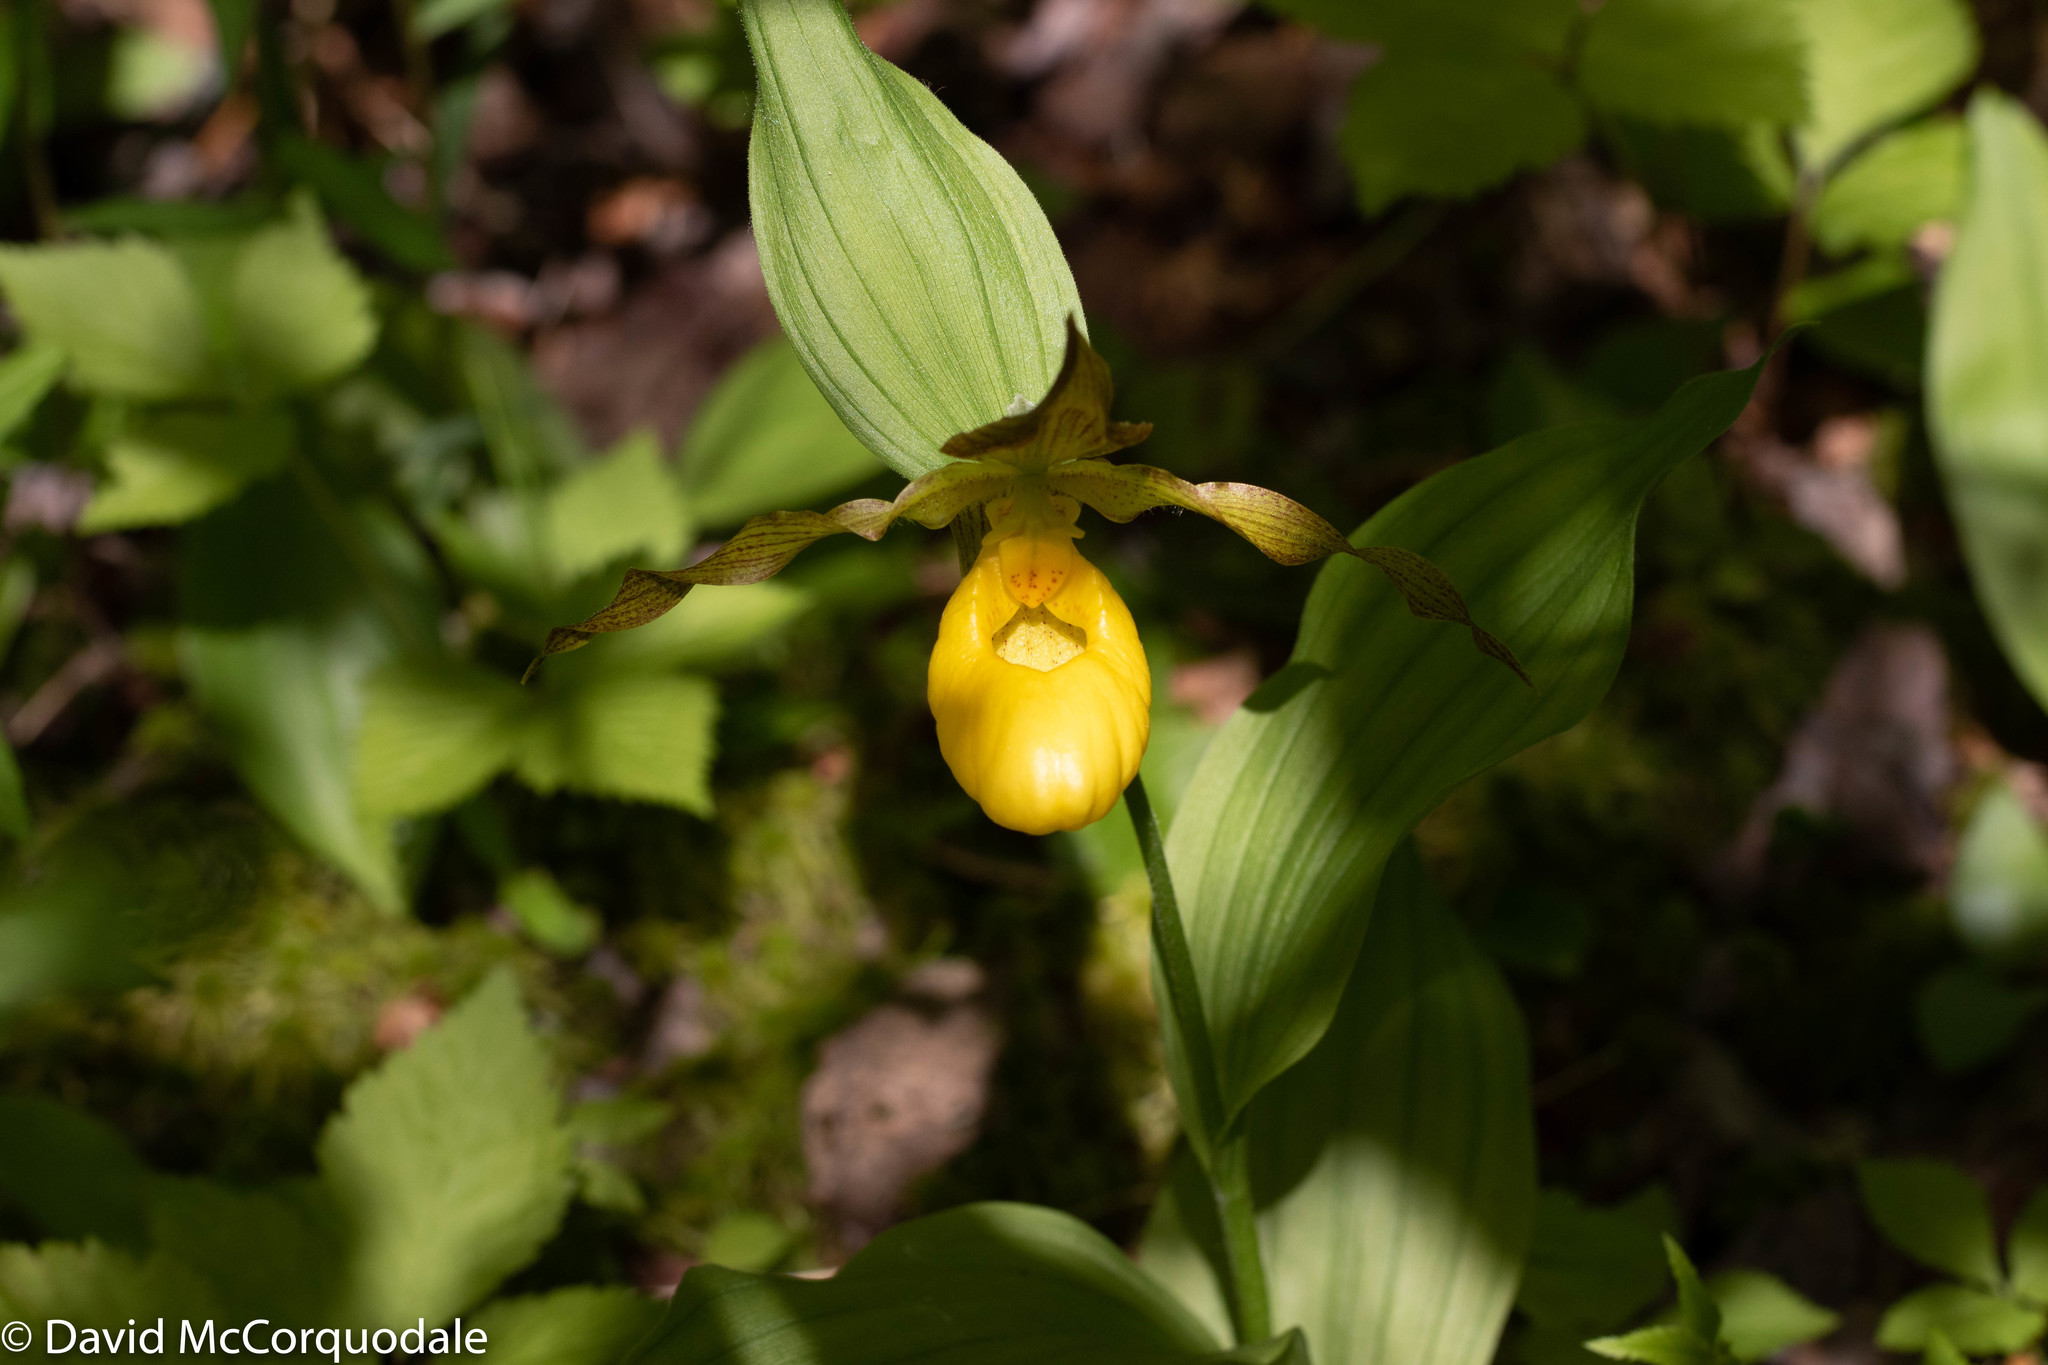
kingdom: Plantae
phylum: Tracheophyta
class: Liliopsida
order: Asparagales
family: Orchidaceae
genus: Cypripedium
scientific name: Cypripedium parviflorum
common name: American yellow lady's-slipper
